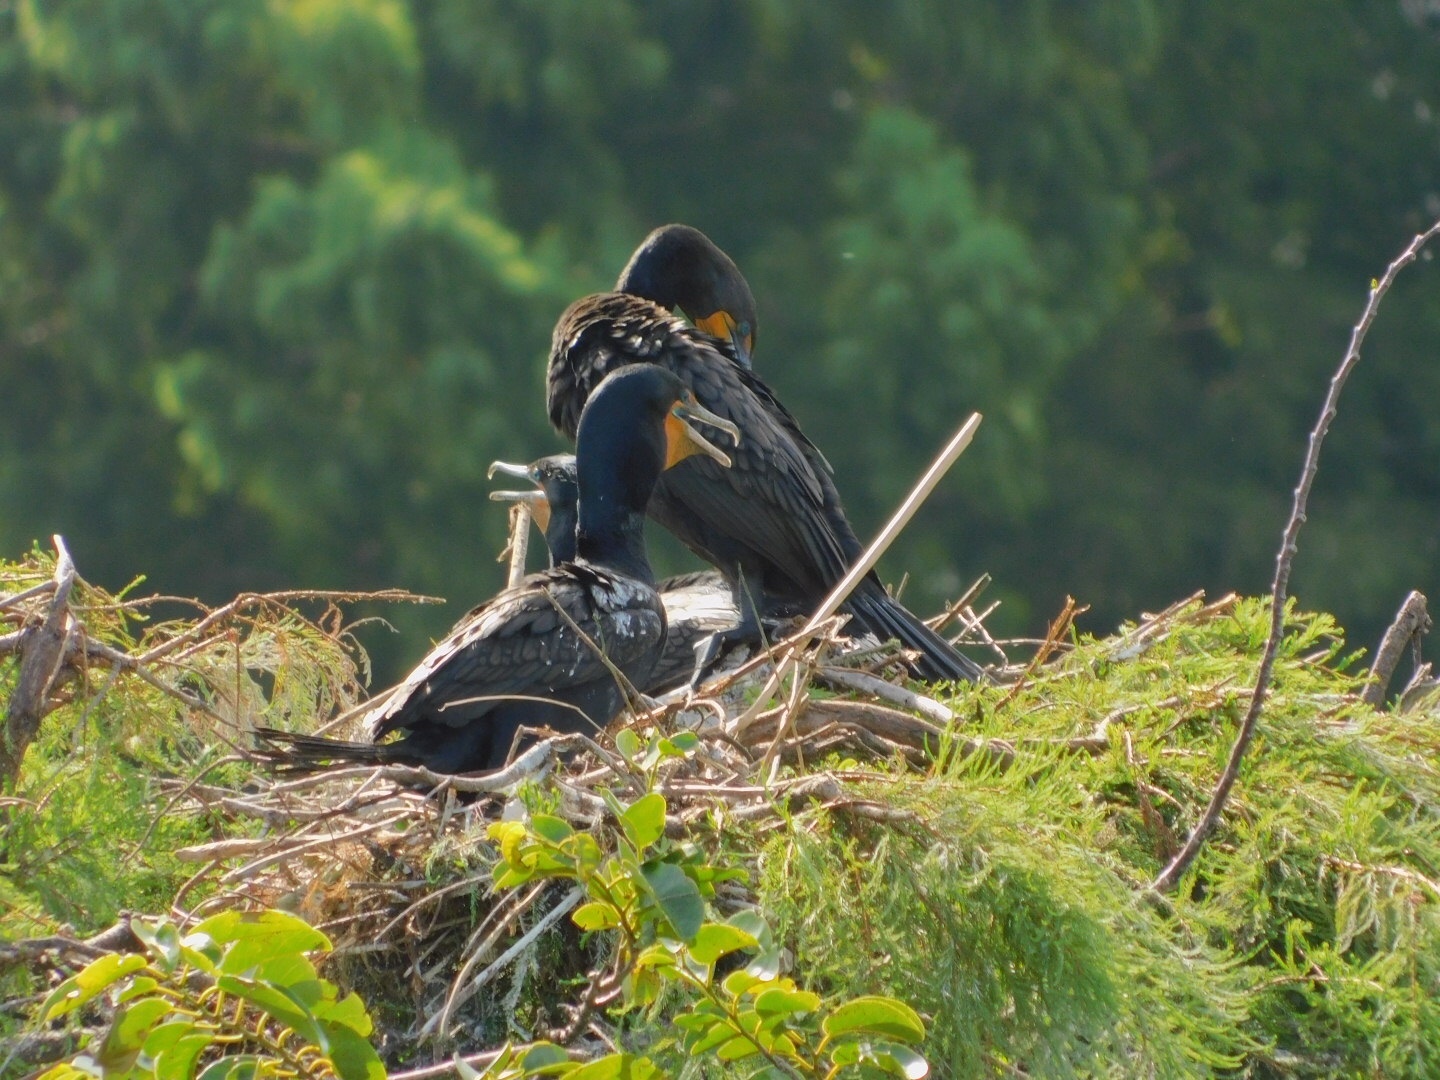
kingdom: Animalia
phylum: Chordata
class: Aves
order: Suliformes
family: Phalacrocoracidae
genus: Phalacrocorax
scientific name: Phalacrocorax auritus
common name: Double-crested cormorant
